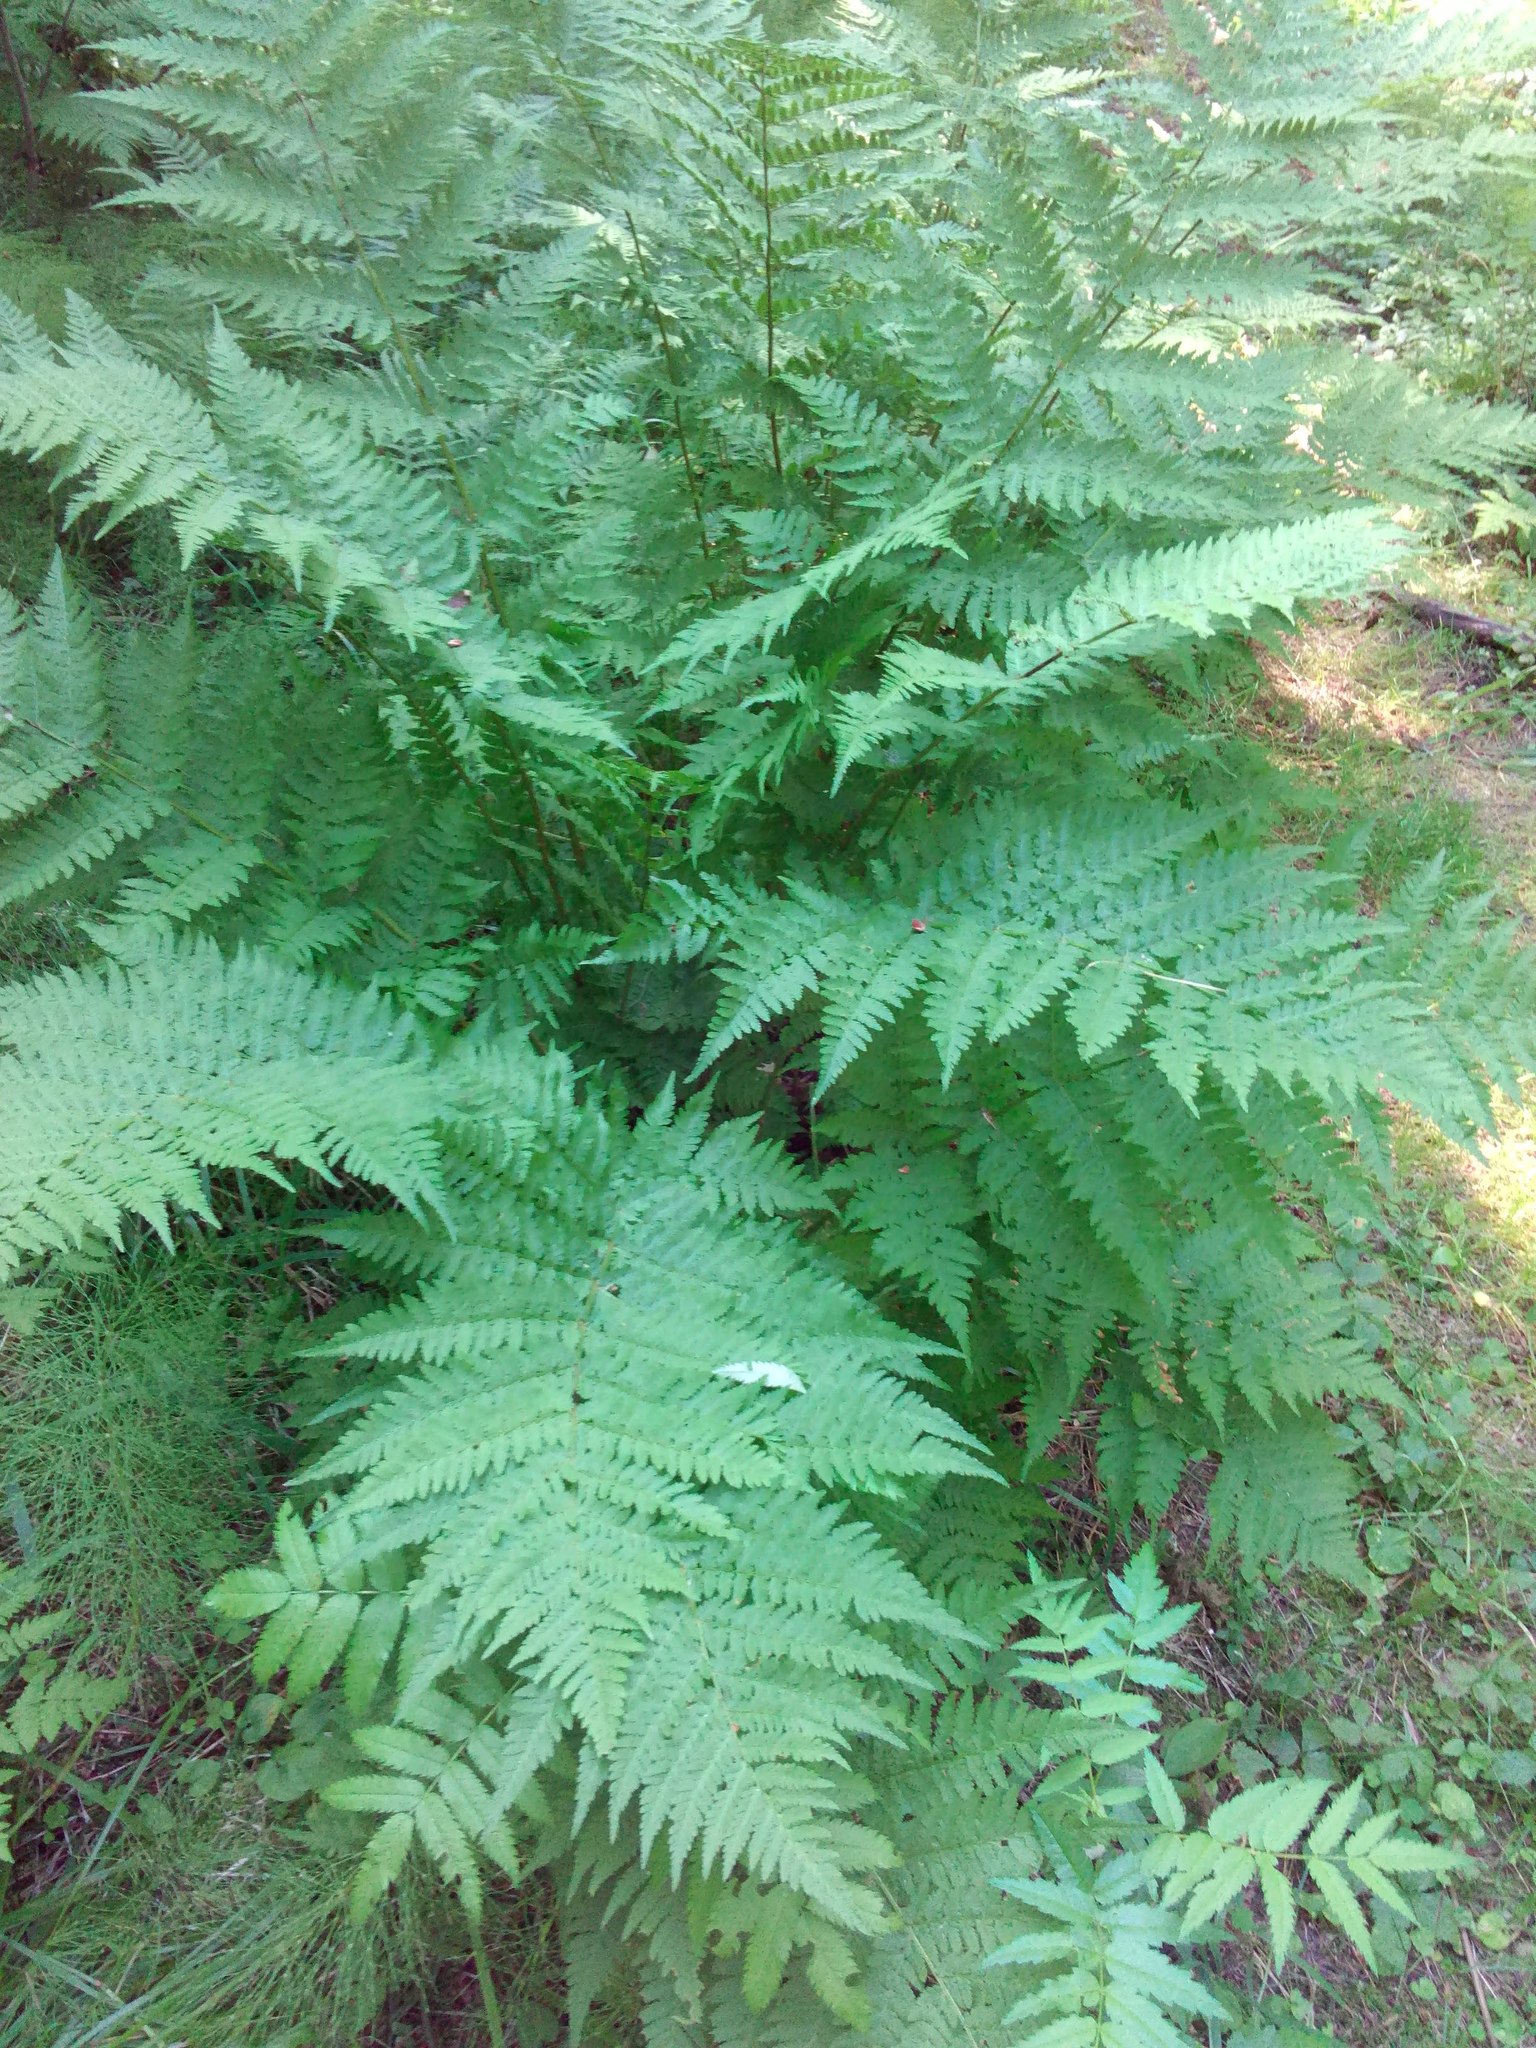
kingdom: Plantae
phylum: Tracheophyta
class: Polypodiopsida
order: Polypodiales
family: Dryopteridaceae
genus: Dryopteris
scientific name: Dryopteris expansa
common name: Northern buckler fern
